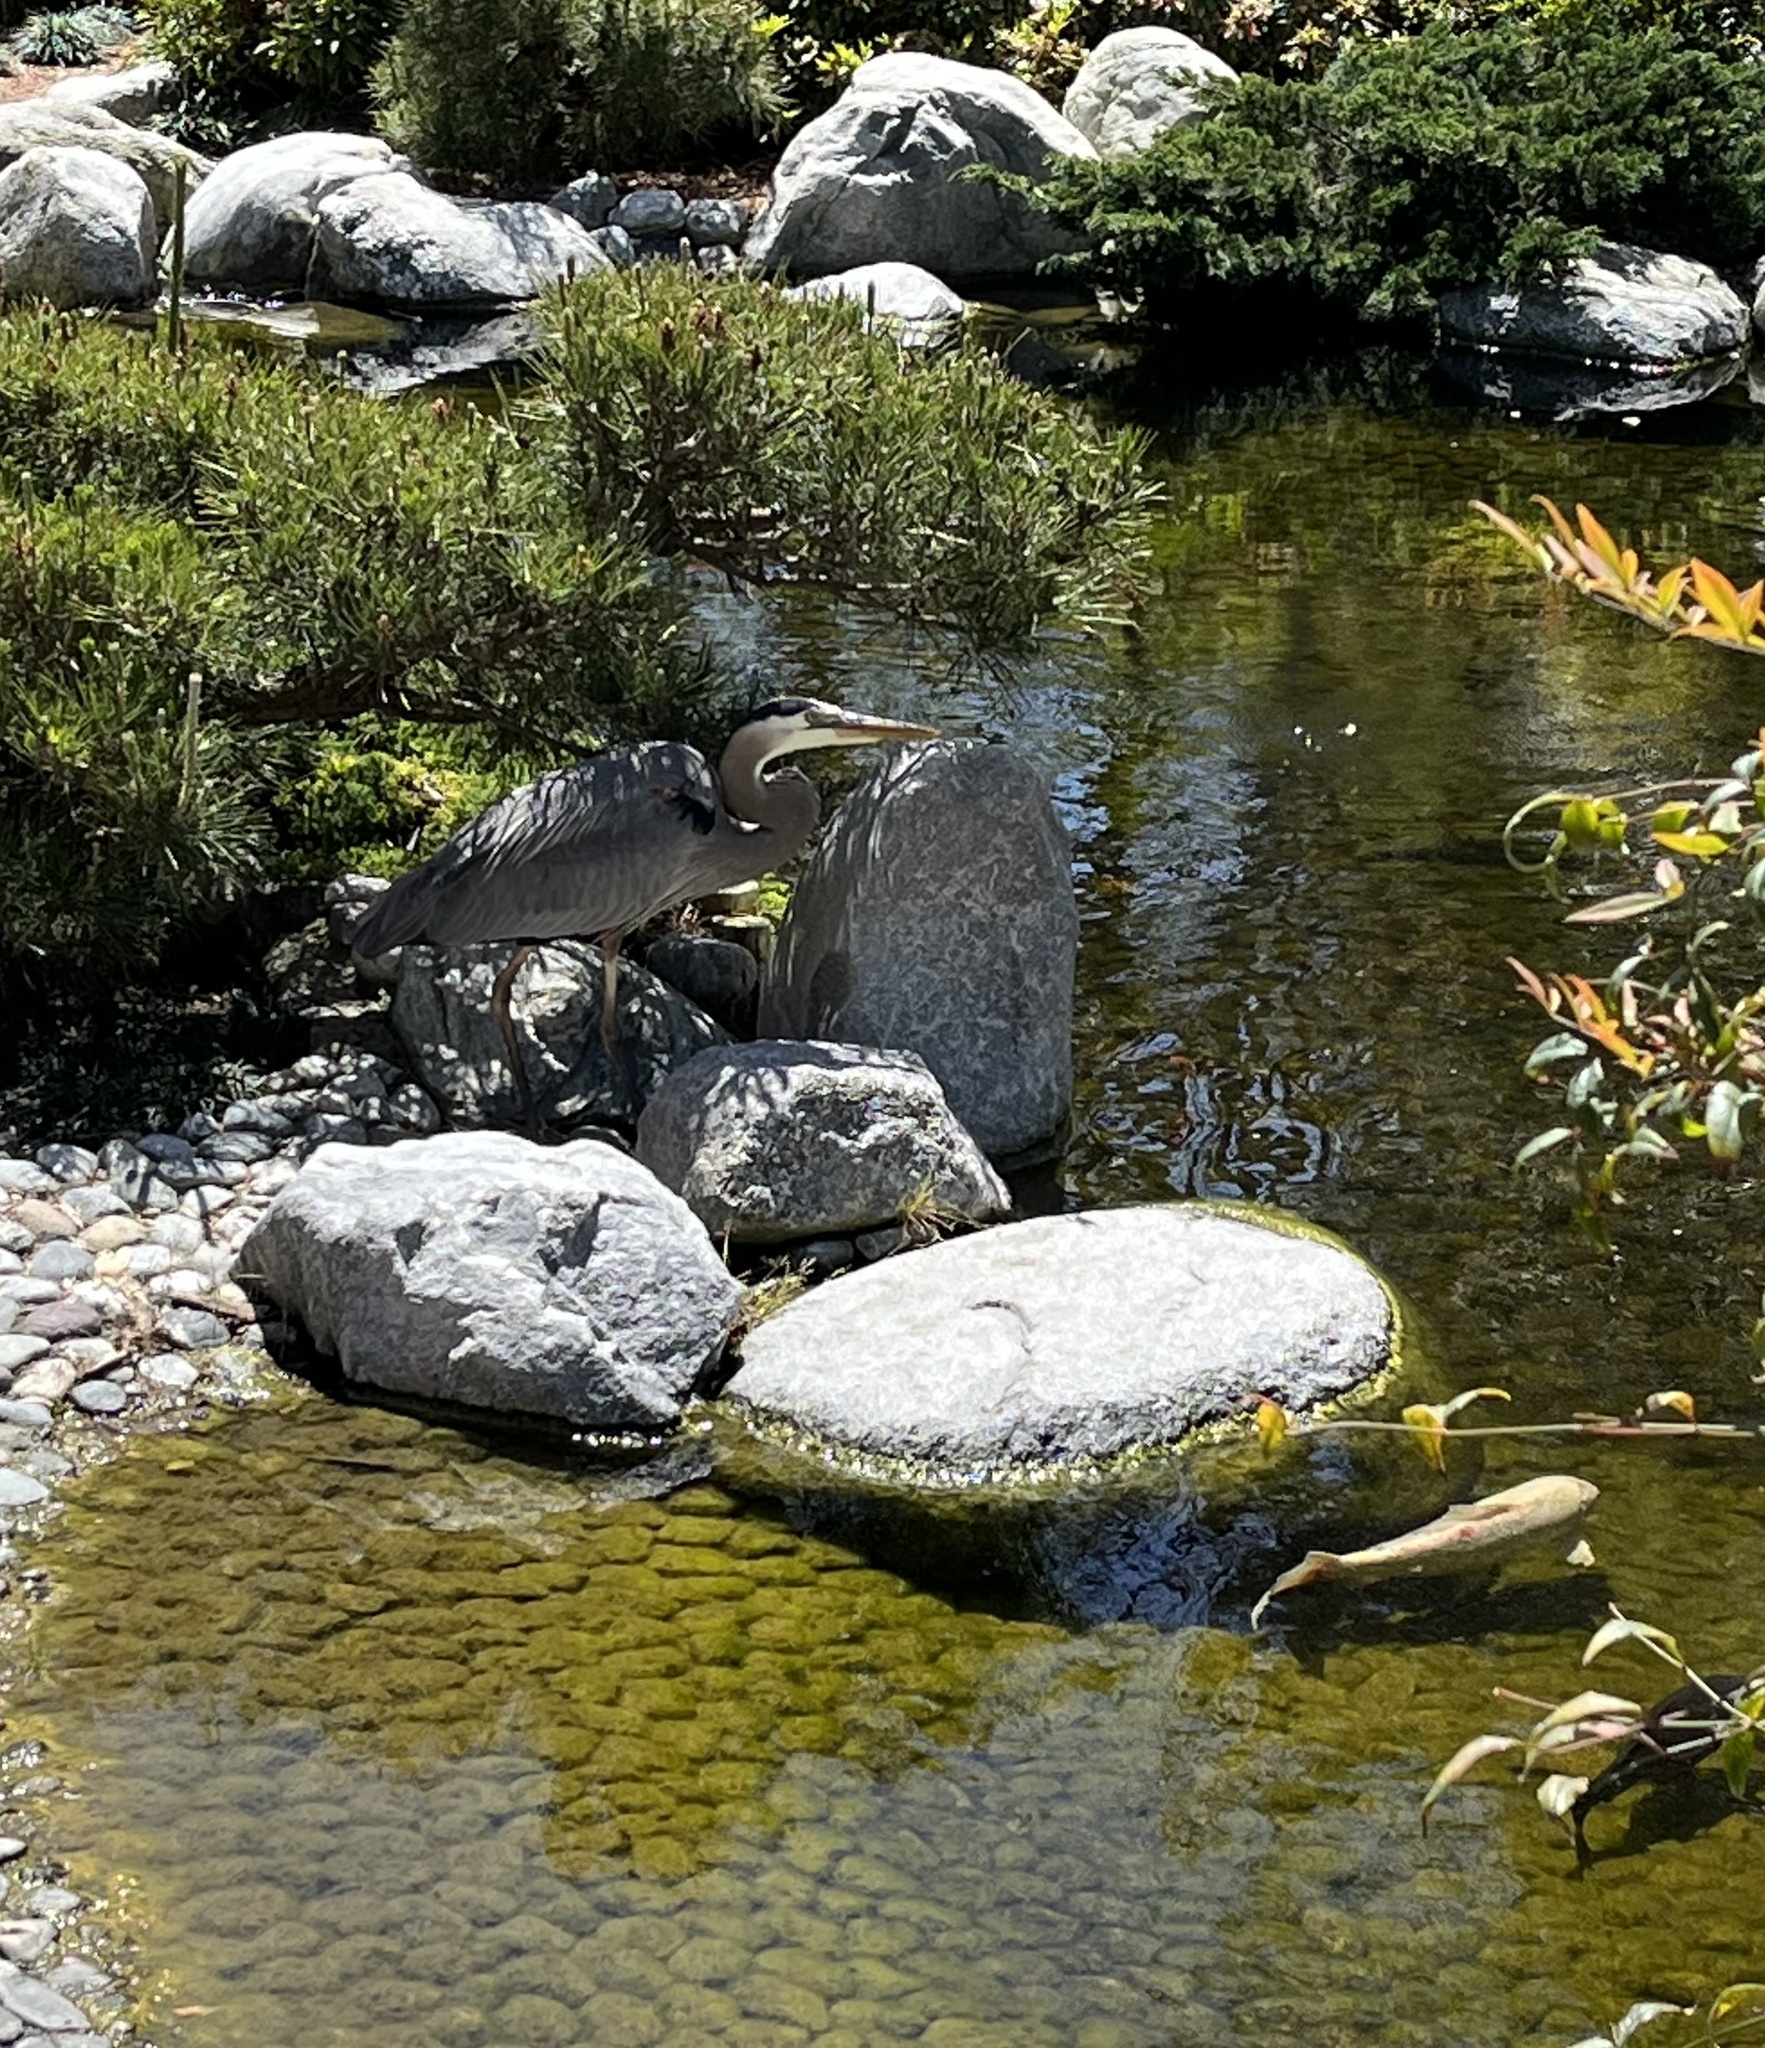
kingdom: Animalia
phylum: Chordata
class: Aves
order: Pelecaniformes
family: Ardeidae
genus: Ardea
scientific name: Ardea herodias
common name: Great blue heron
